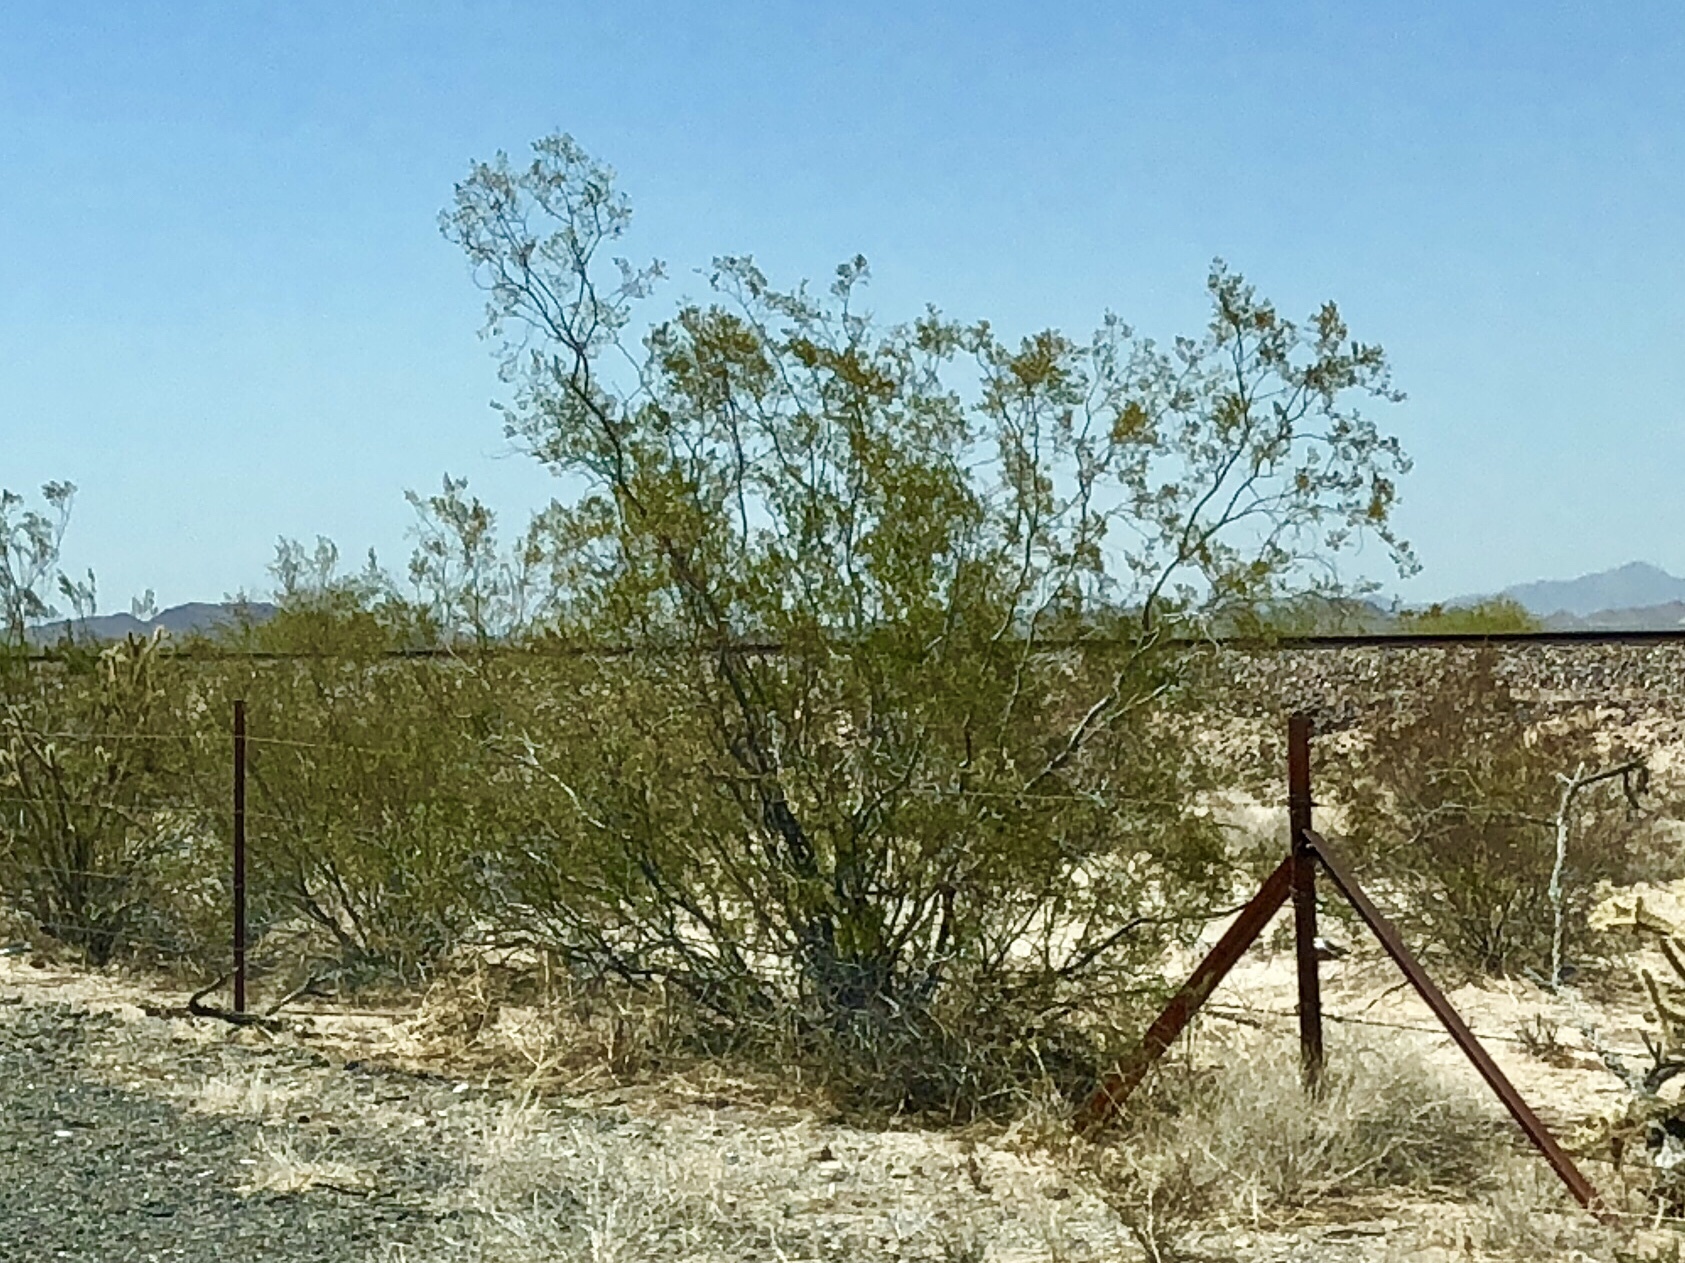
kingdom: Plantae
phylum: Tracheophyta
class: Magnoliopsida
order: Zygophyllales
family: Zygophyllaceae
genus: Larrea
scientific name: Larrea tridentata
